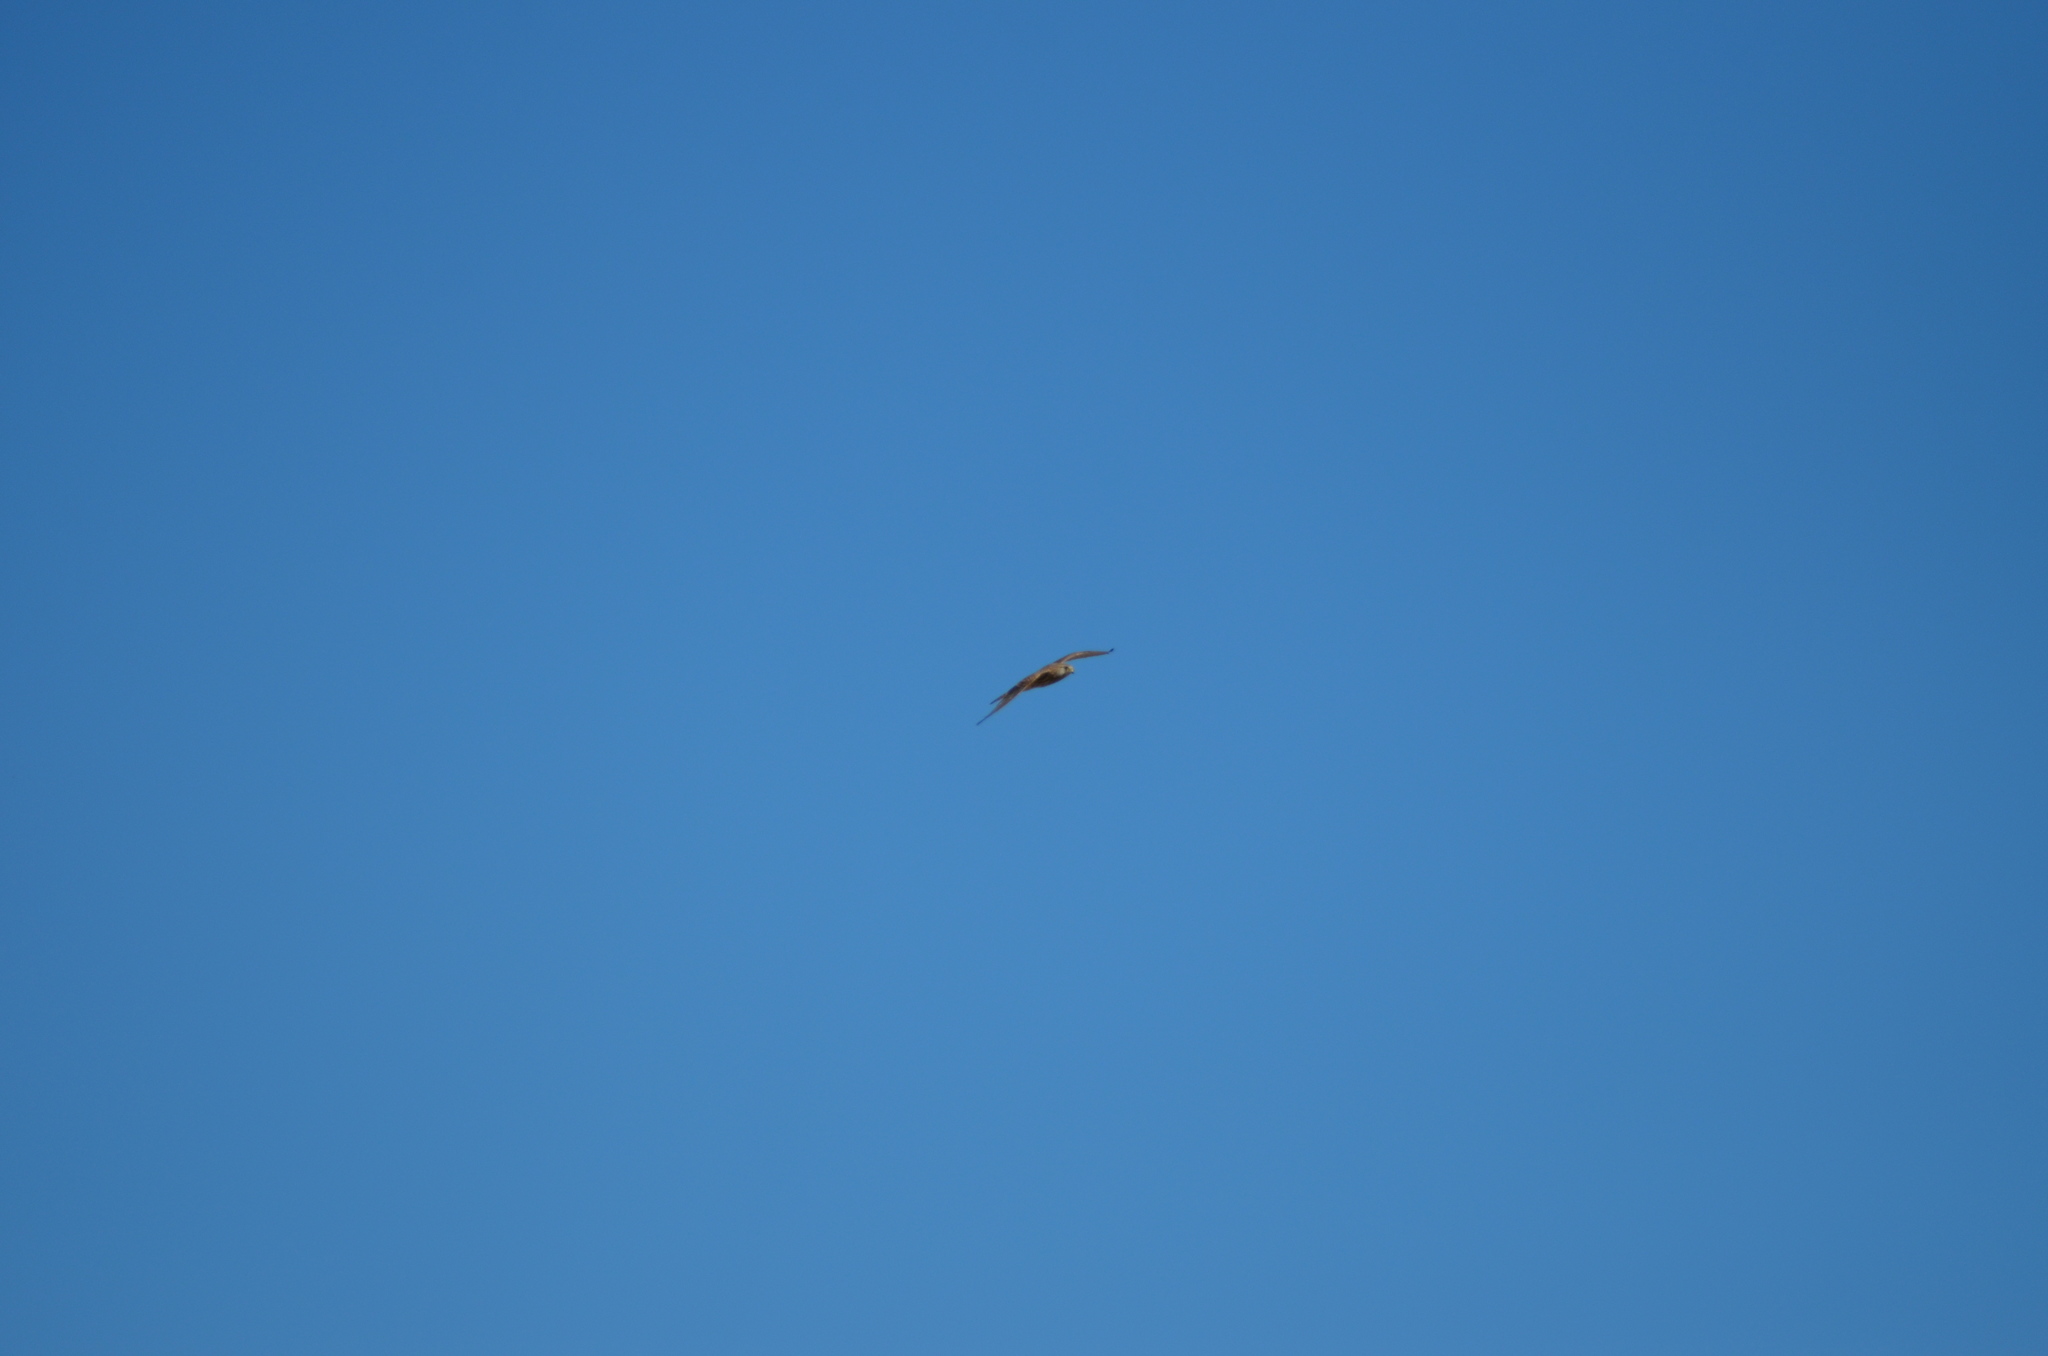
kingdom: Animalia
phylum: Chordata
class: Aves
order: Falconiformes
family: Falconidae
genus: Falco
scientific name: Falco tinnunculus
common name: Common kestrel
